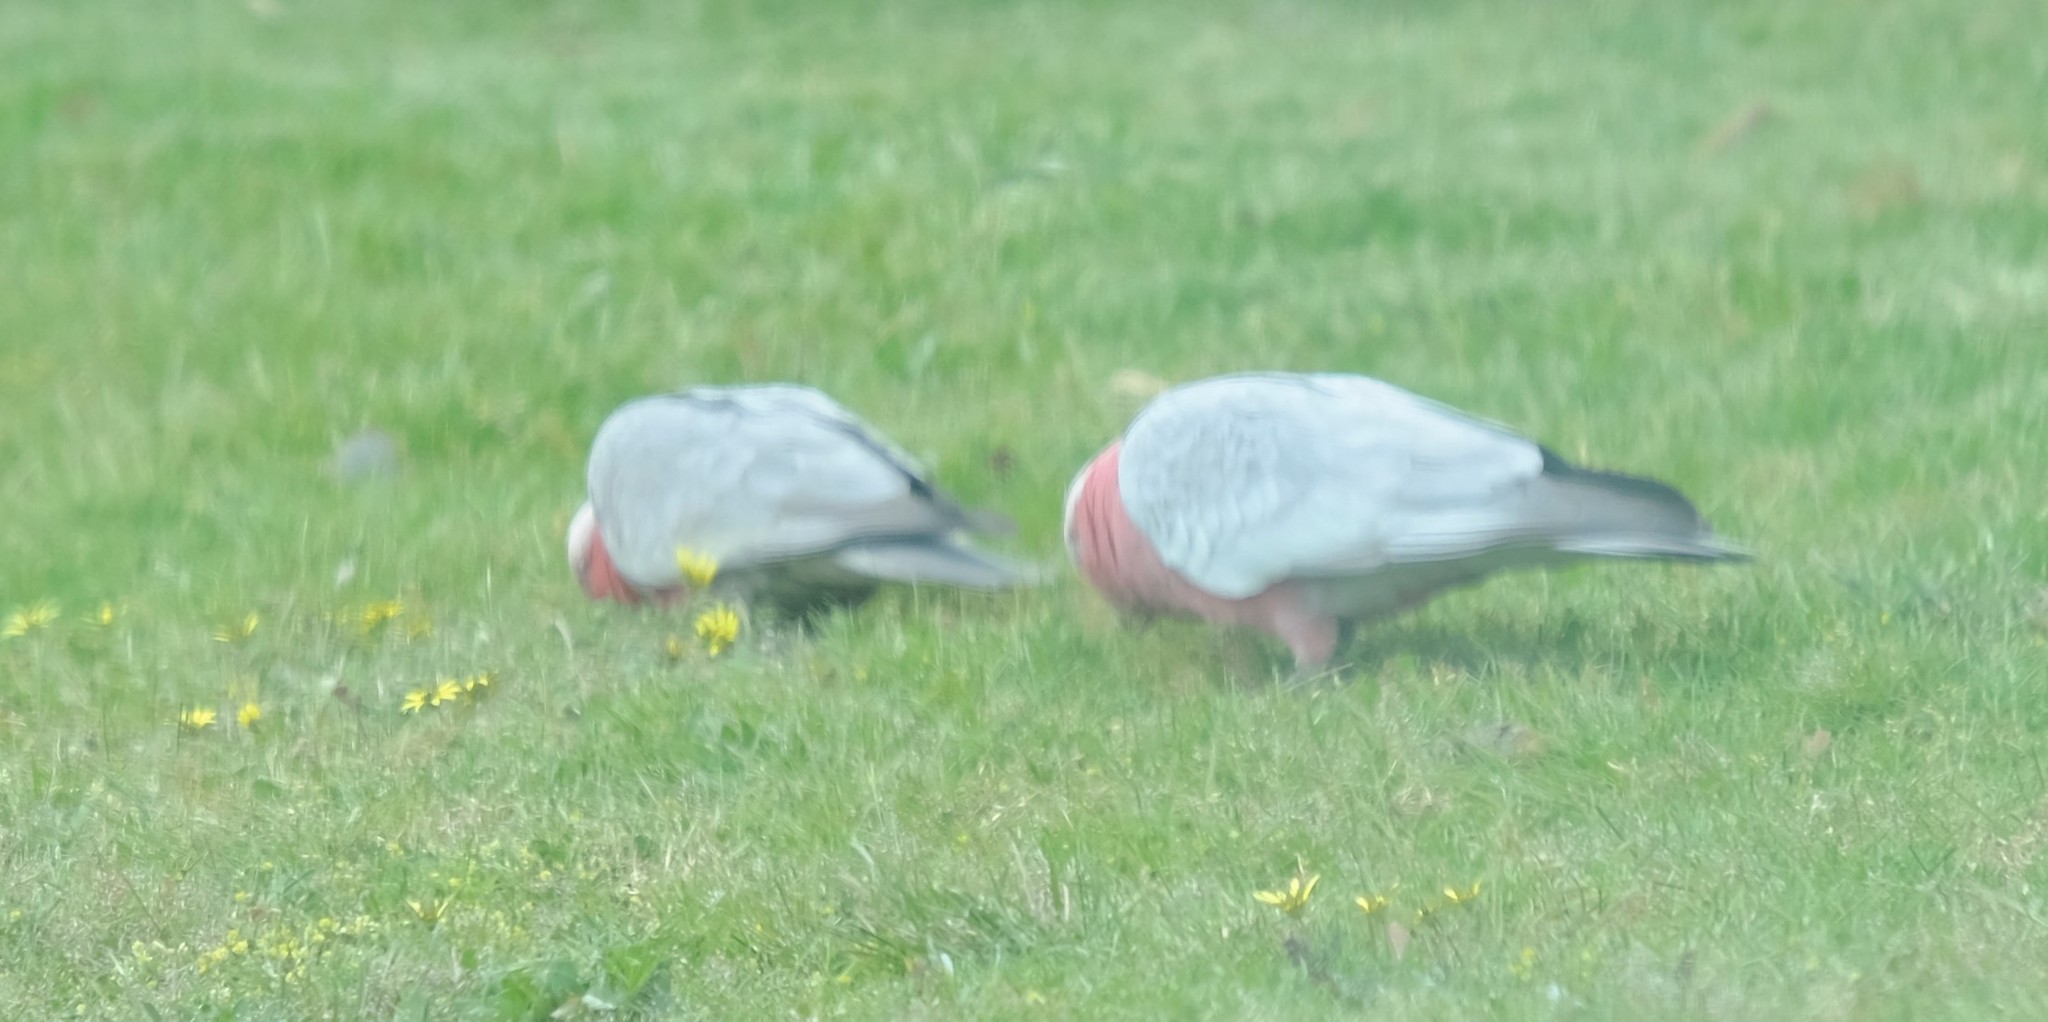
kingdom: Animalia
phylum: Chordata
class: Aves
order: Psittaciformes
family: Psittacidae
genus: Eolophus
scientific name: Eolophus roseicapilla
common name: Galah
